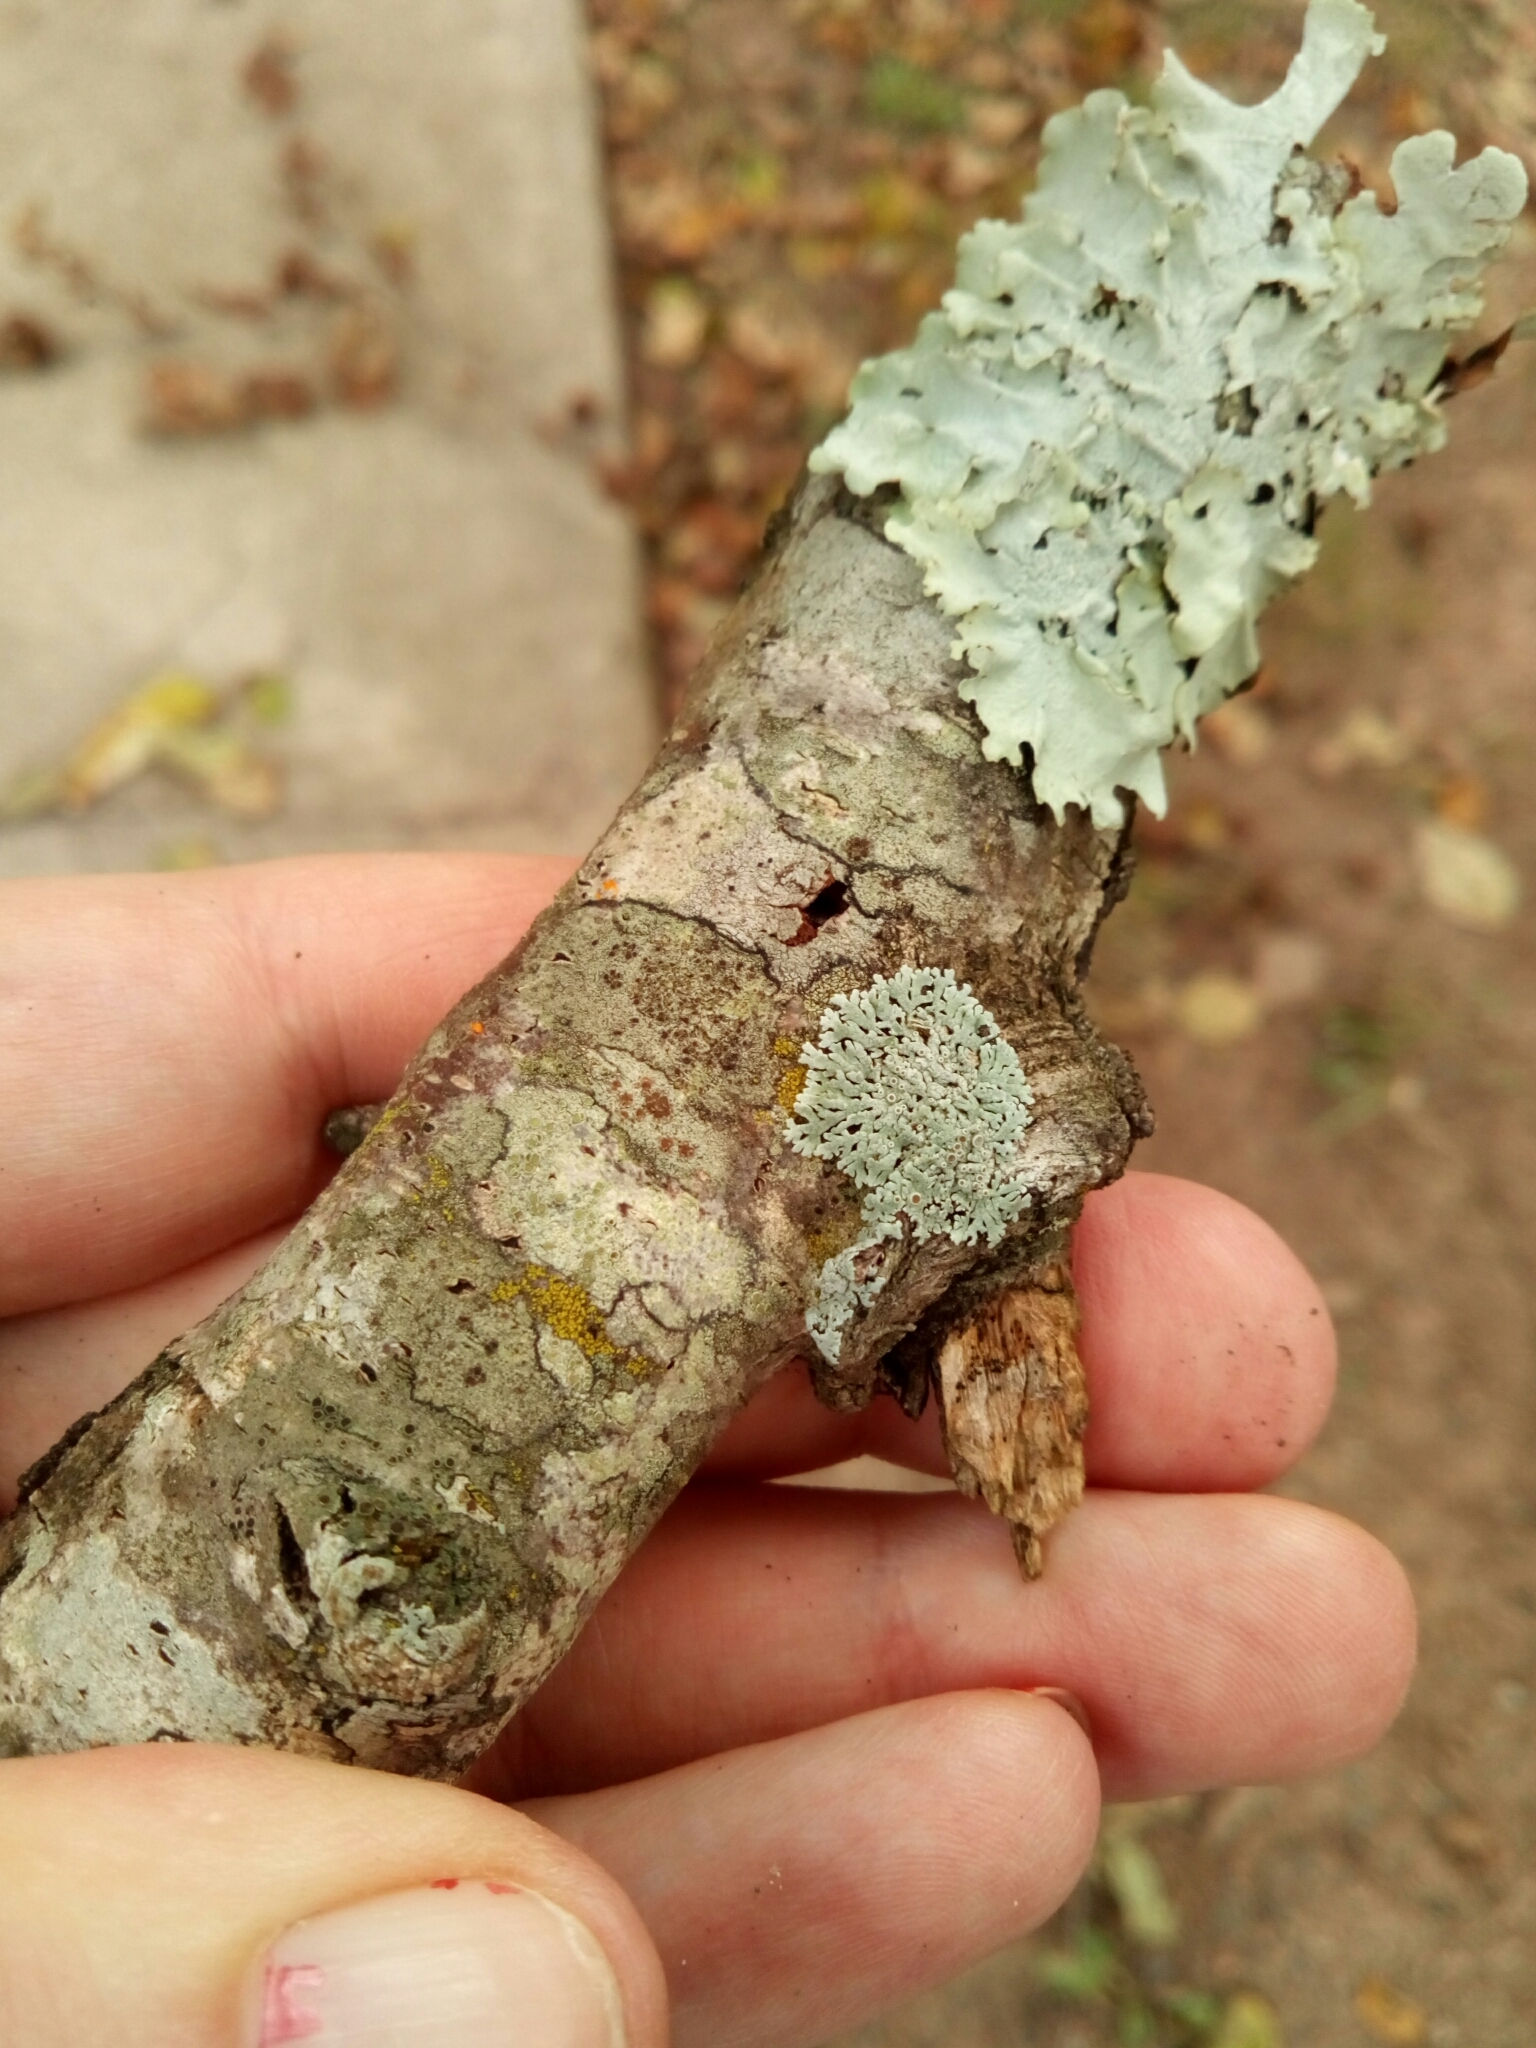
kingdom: Fungi
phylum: Ascomycota
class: Lecanoromycetes
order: Caliciales
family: Physciaceae
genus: Physcia
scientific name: Physcia stellaris
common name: Star rosette lichen
